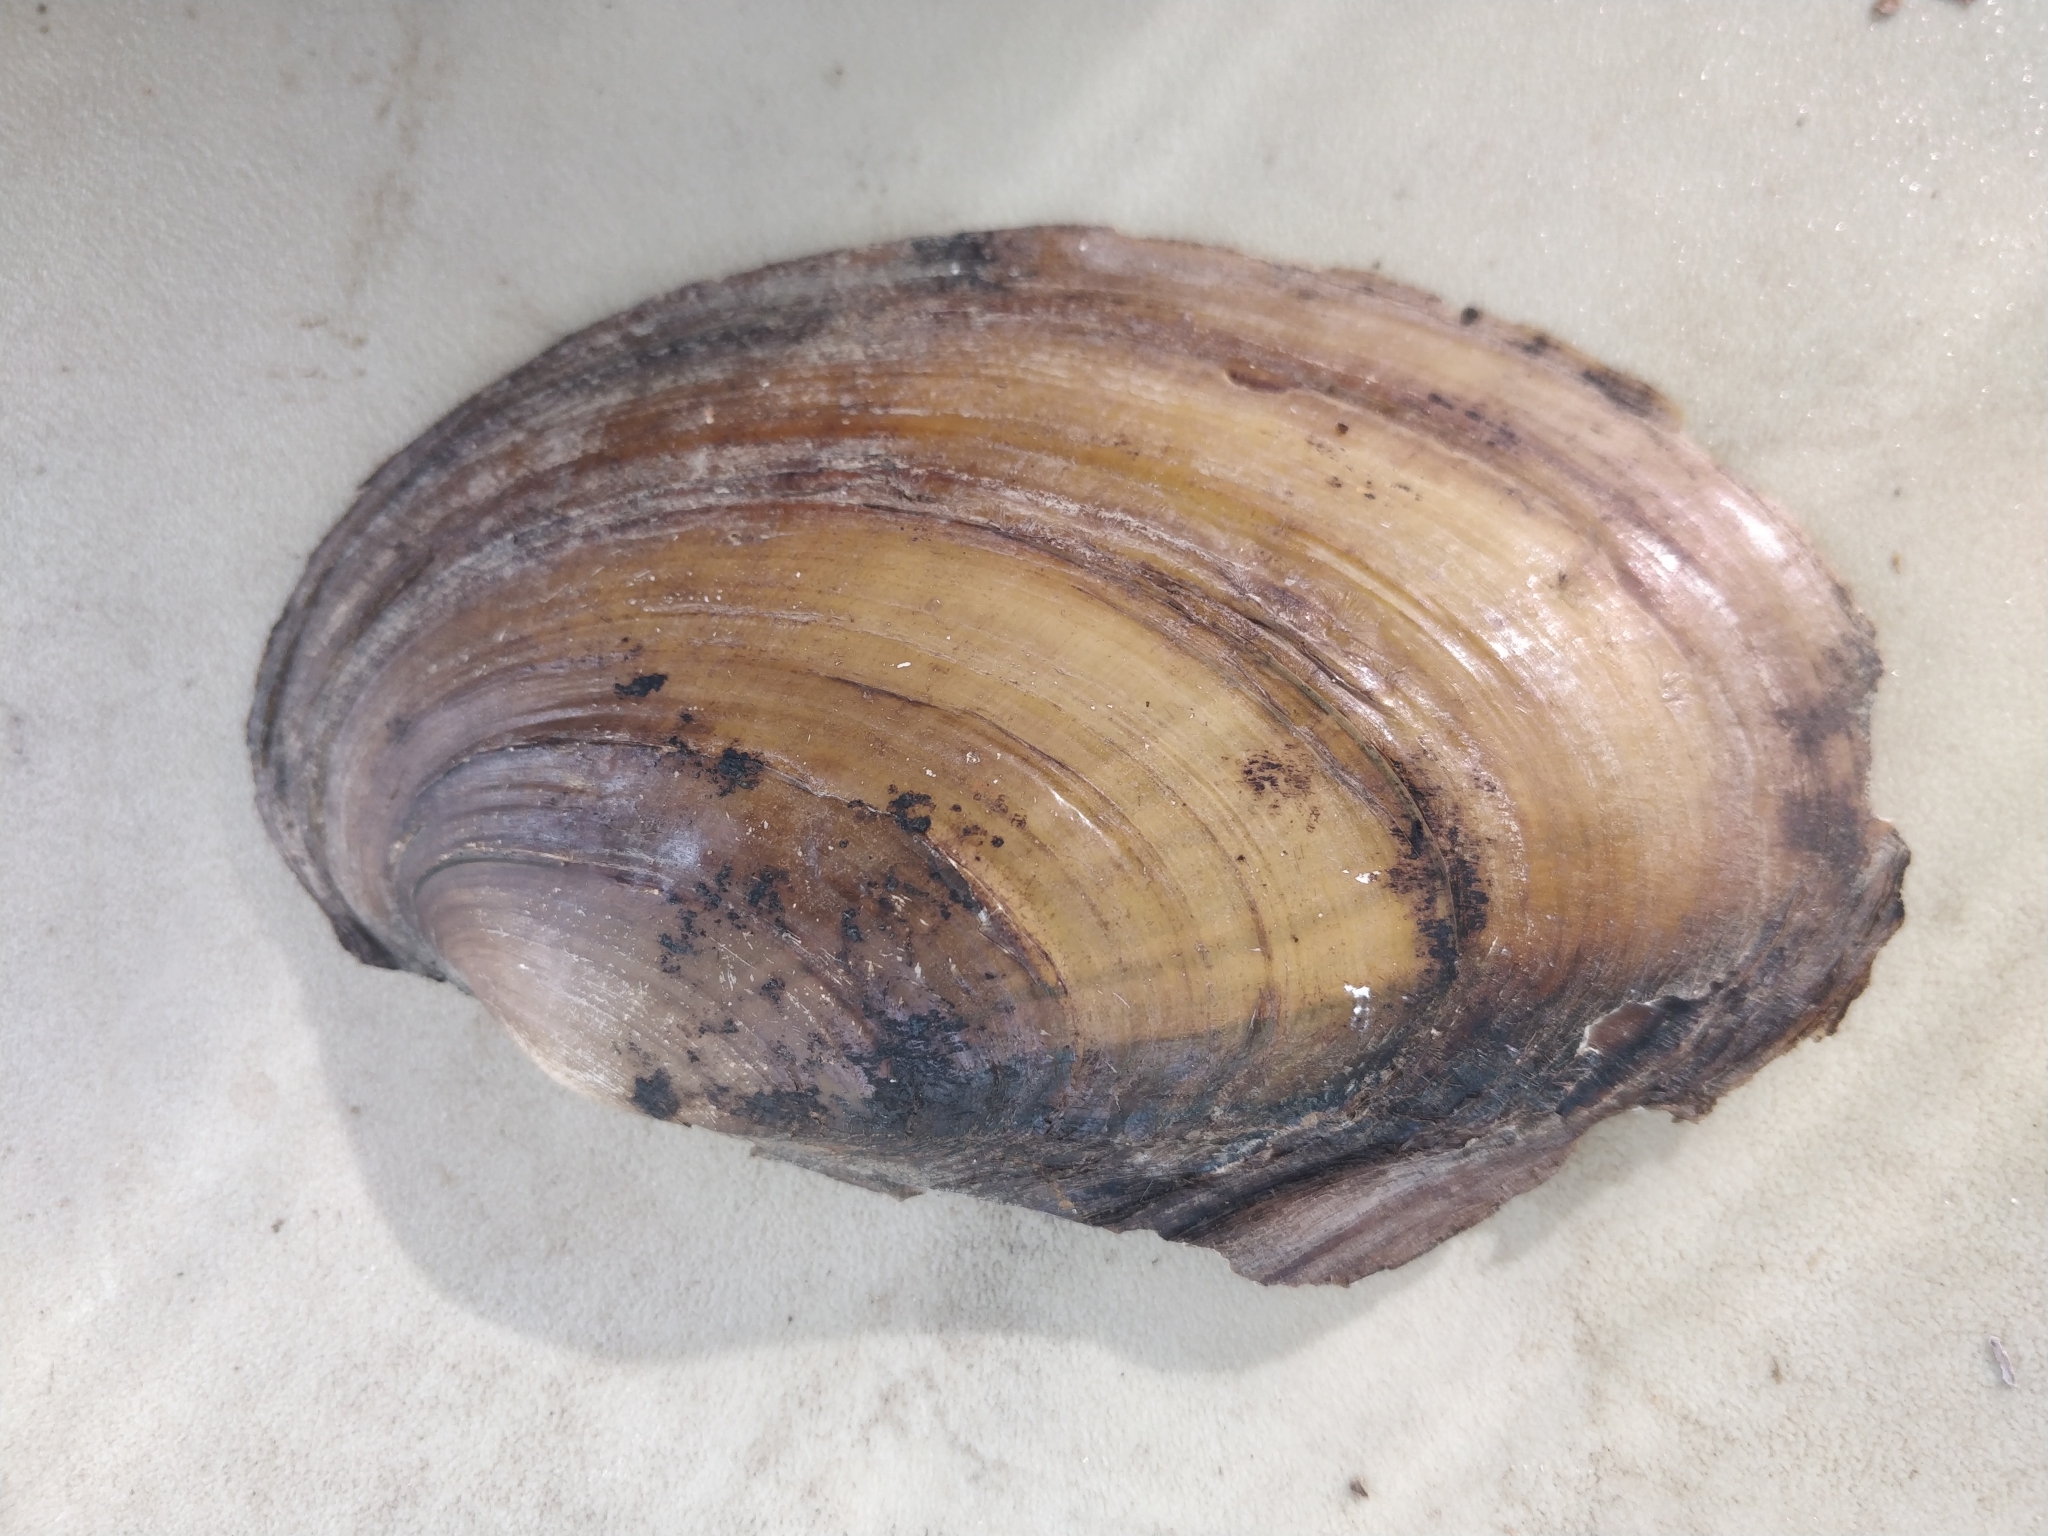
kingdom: Animalia
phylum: Mollusca
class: Bivalvia
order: Unionida
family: Unionidae
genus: Potamilus
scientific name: Potamilus fragilis
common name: Fragile papershell
